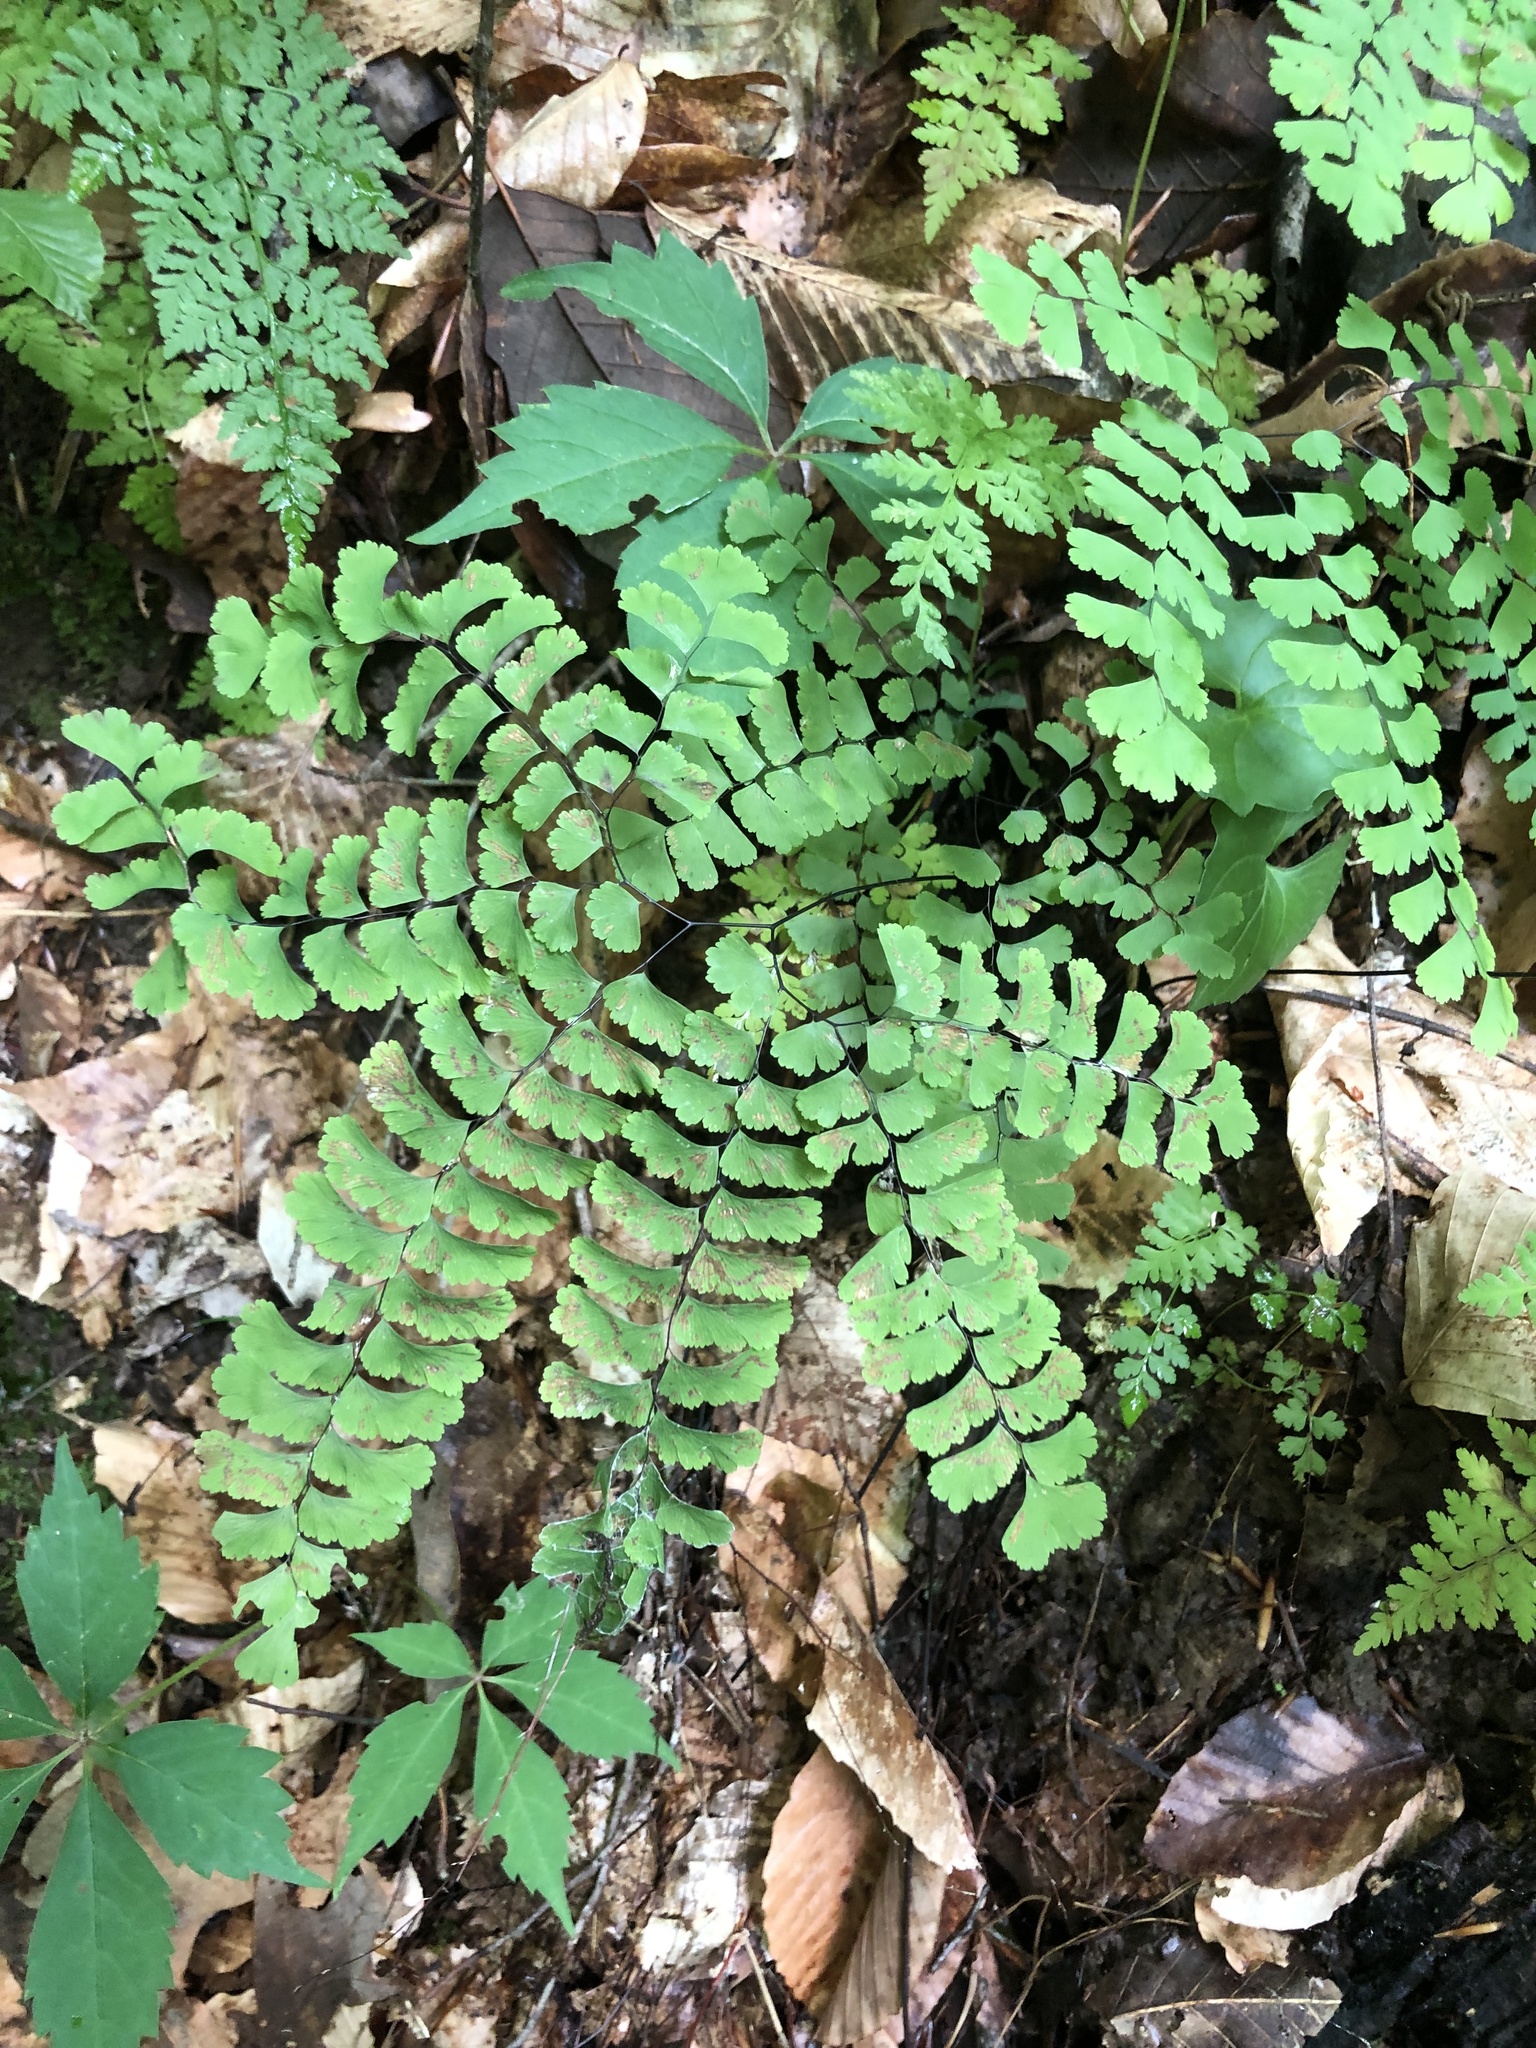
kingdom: Plantae
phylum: Tracheophyta
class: Polypodiopsida
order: Polypodiales
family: Pteridaceae
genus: Adiantum
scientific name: Adiantum pedatum
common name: Five-finger fern
